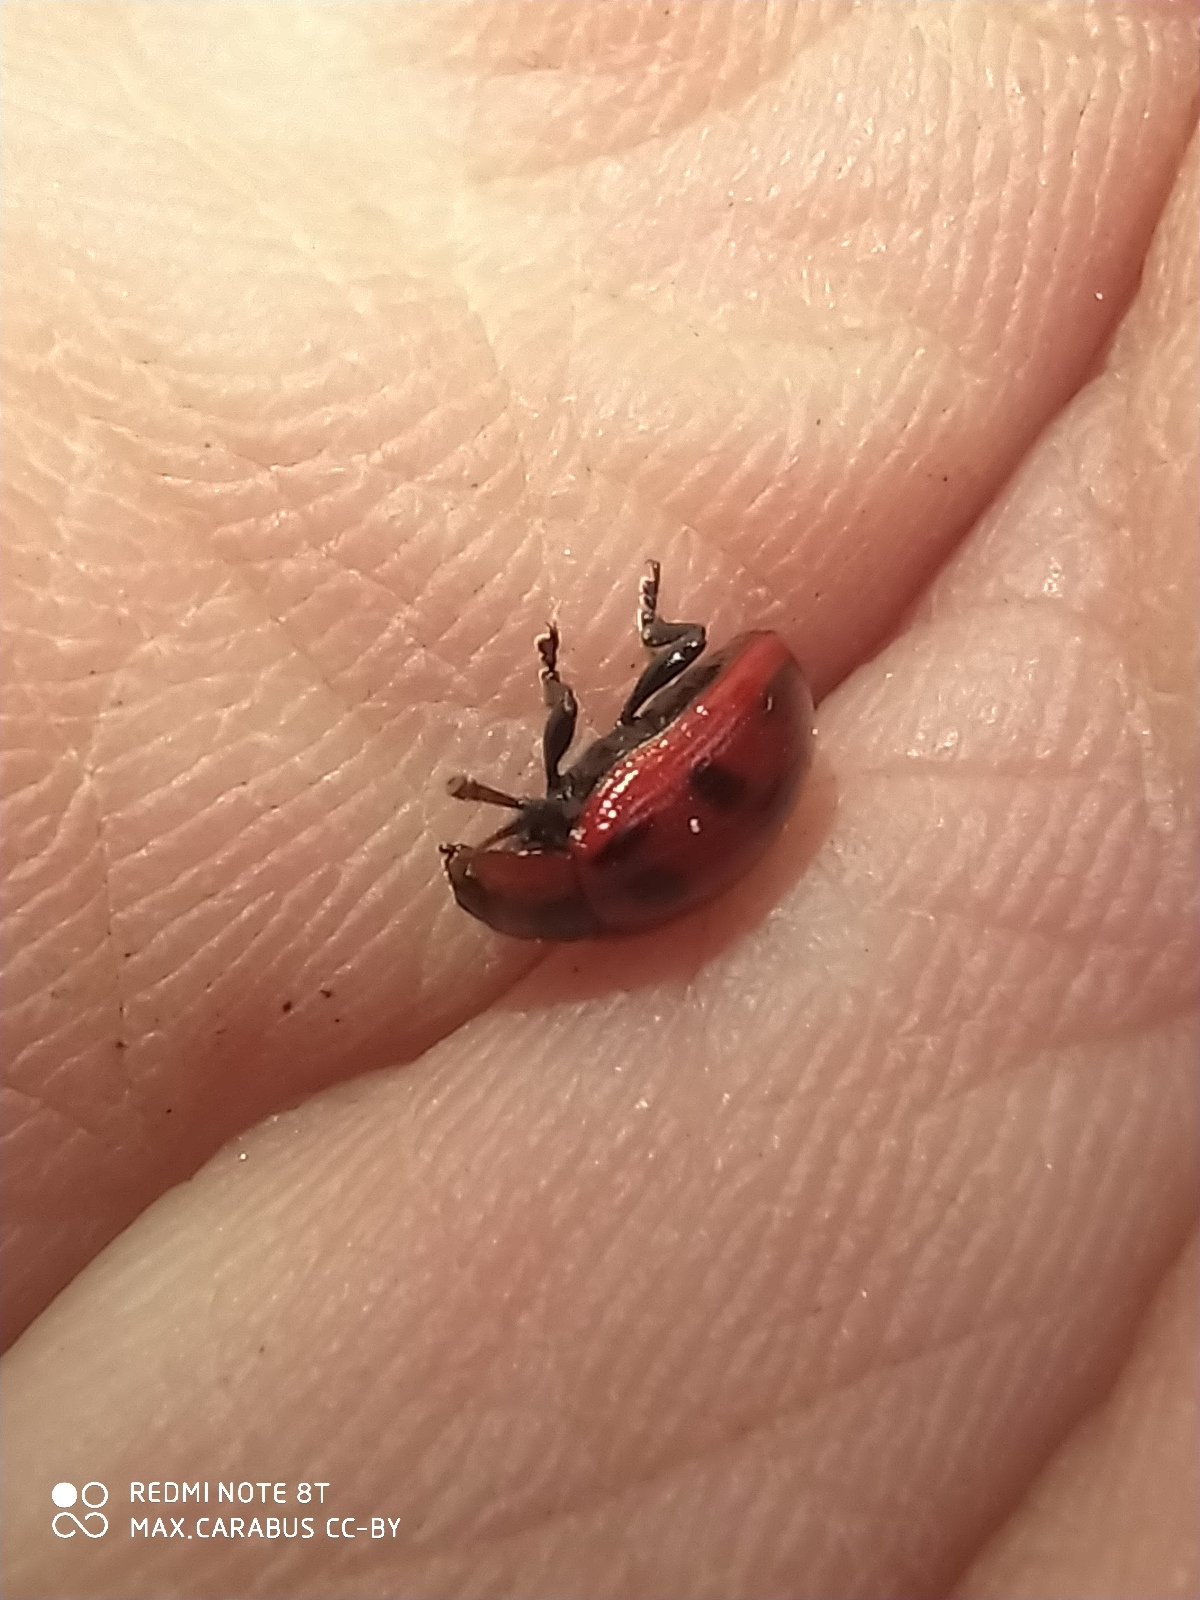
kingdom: Animalia
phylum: Arthropoda
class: Insecta
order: Coleoptera
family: Chrysomelidae
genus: Gonioctena
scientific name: Gonioctena
